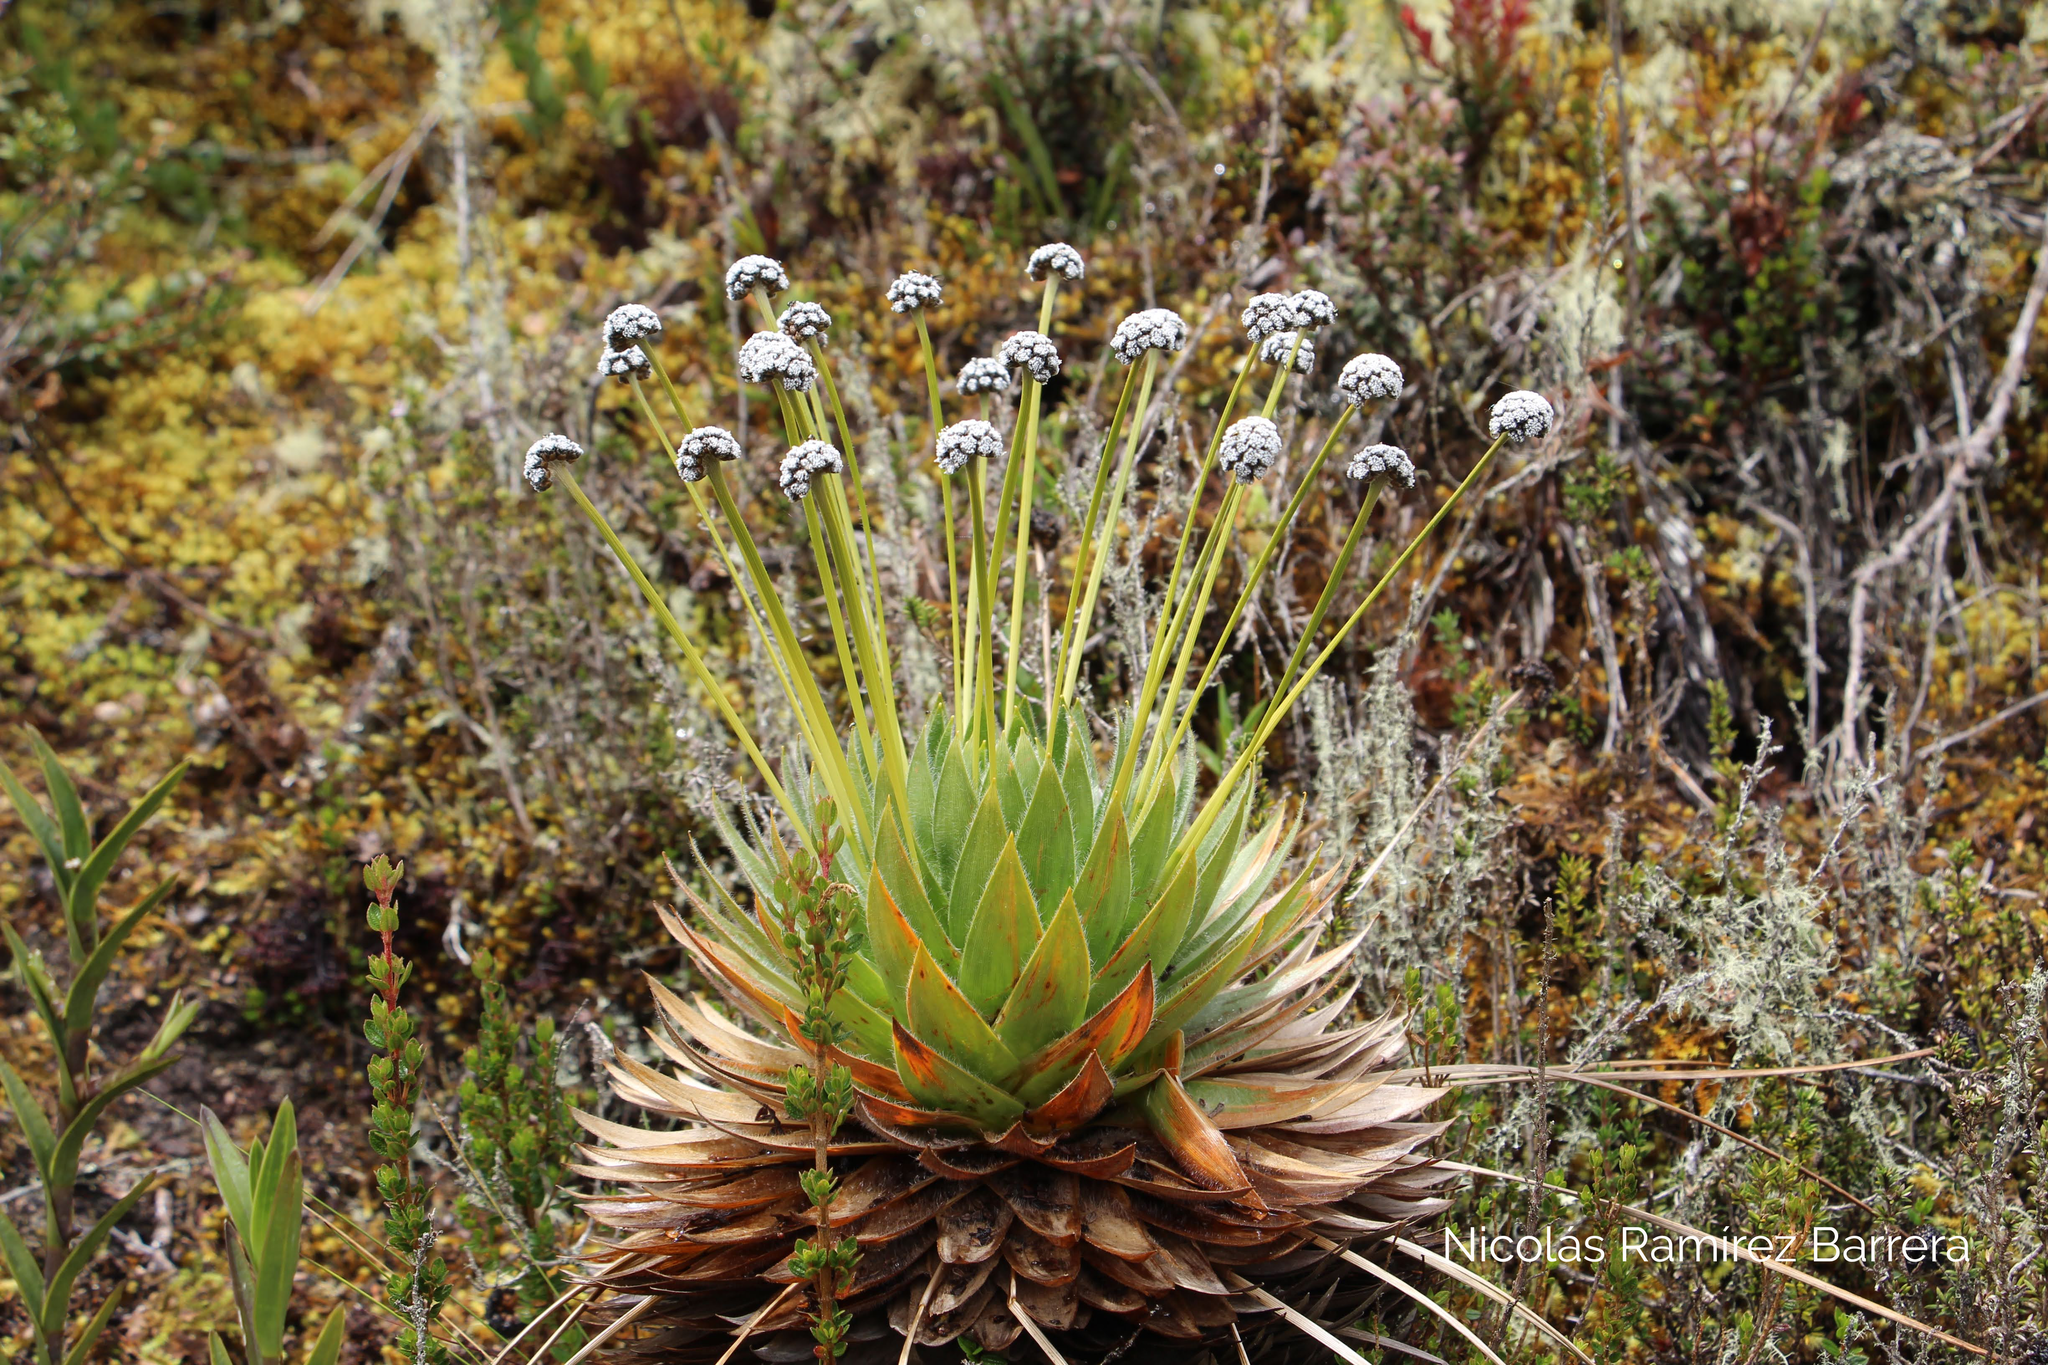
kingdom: Plantae
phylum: Tracheophyta
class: Liliopsida
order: Poales
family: Eriocaulaceae
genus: Paepalanthus
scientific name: Paepalanthus alpinus
